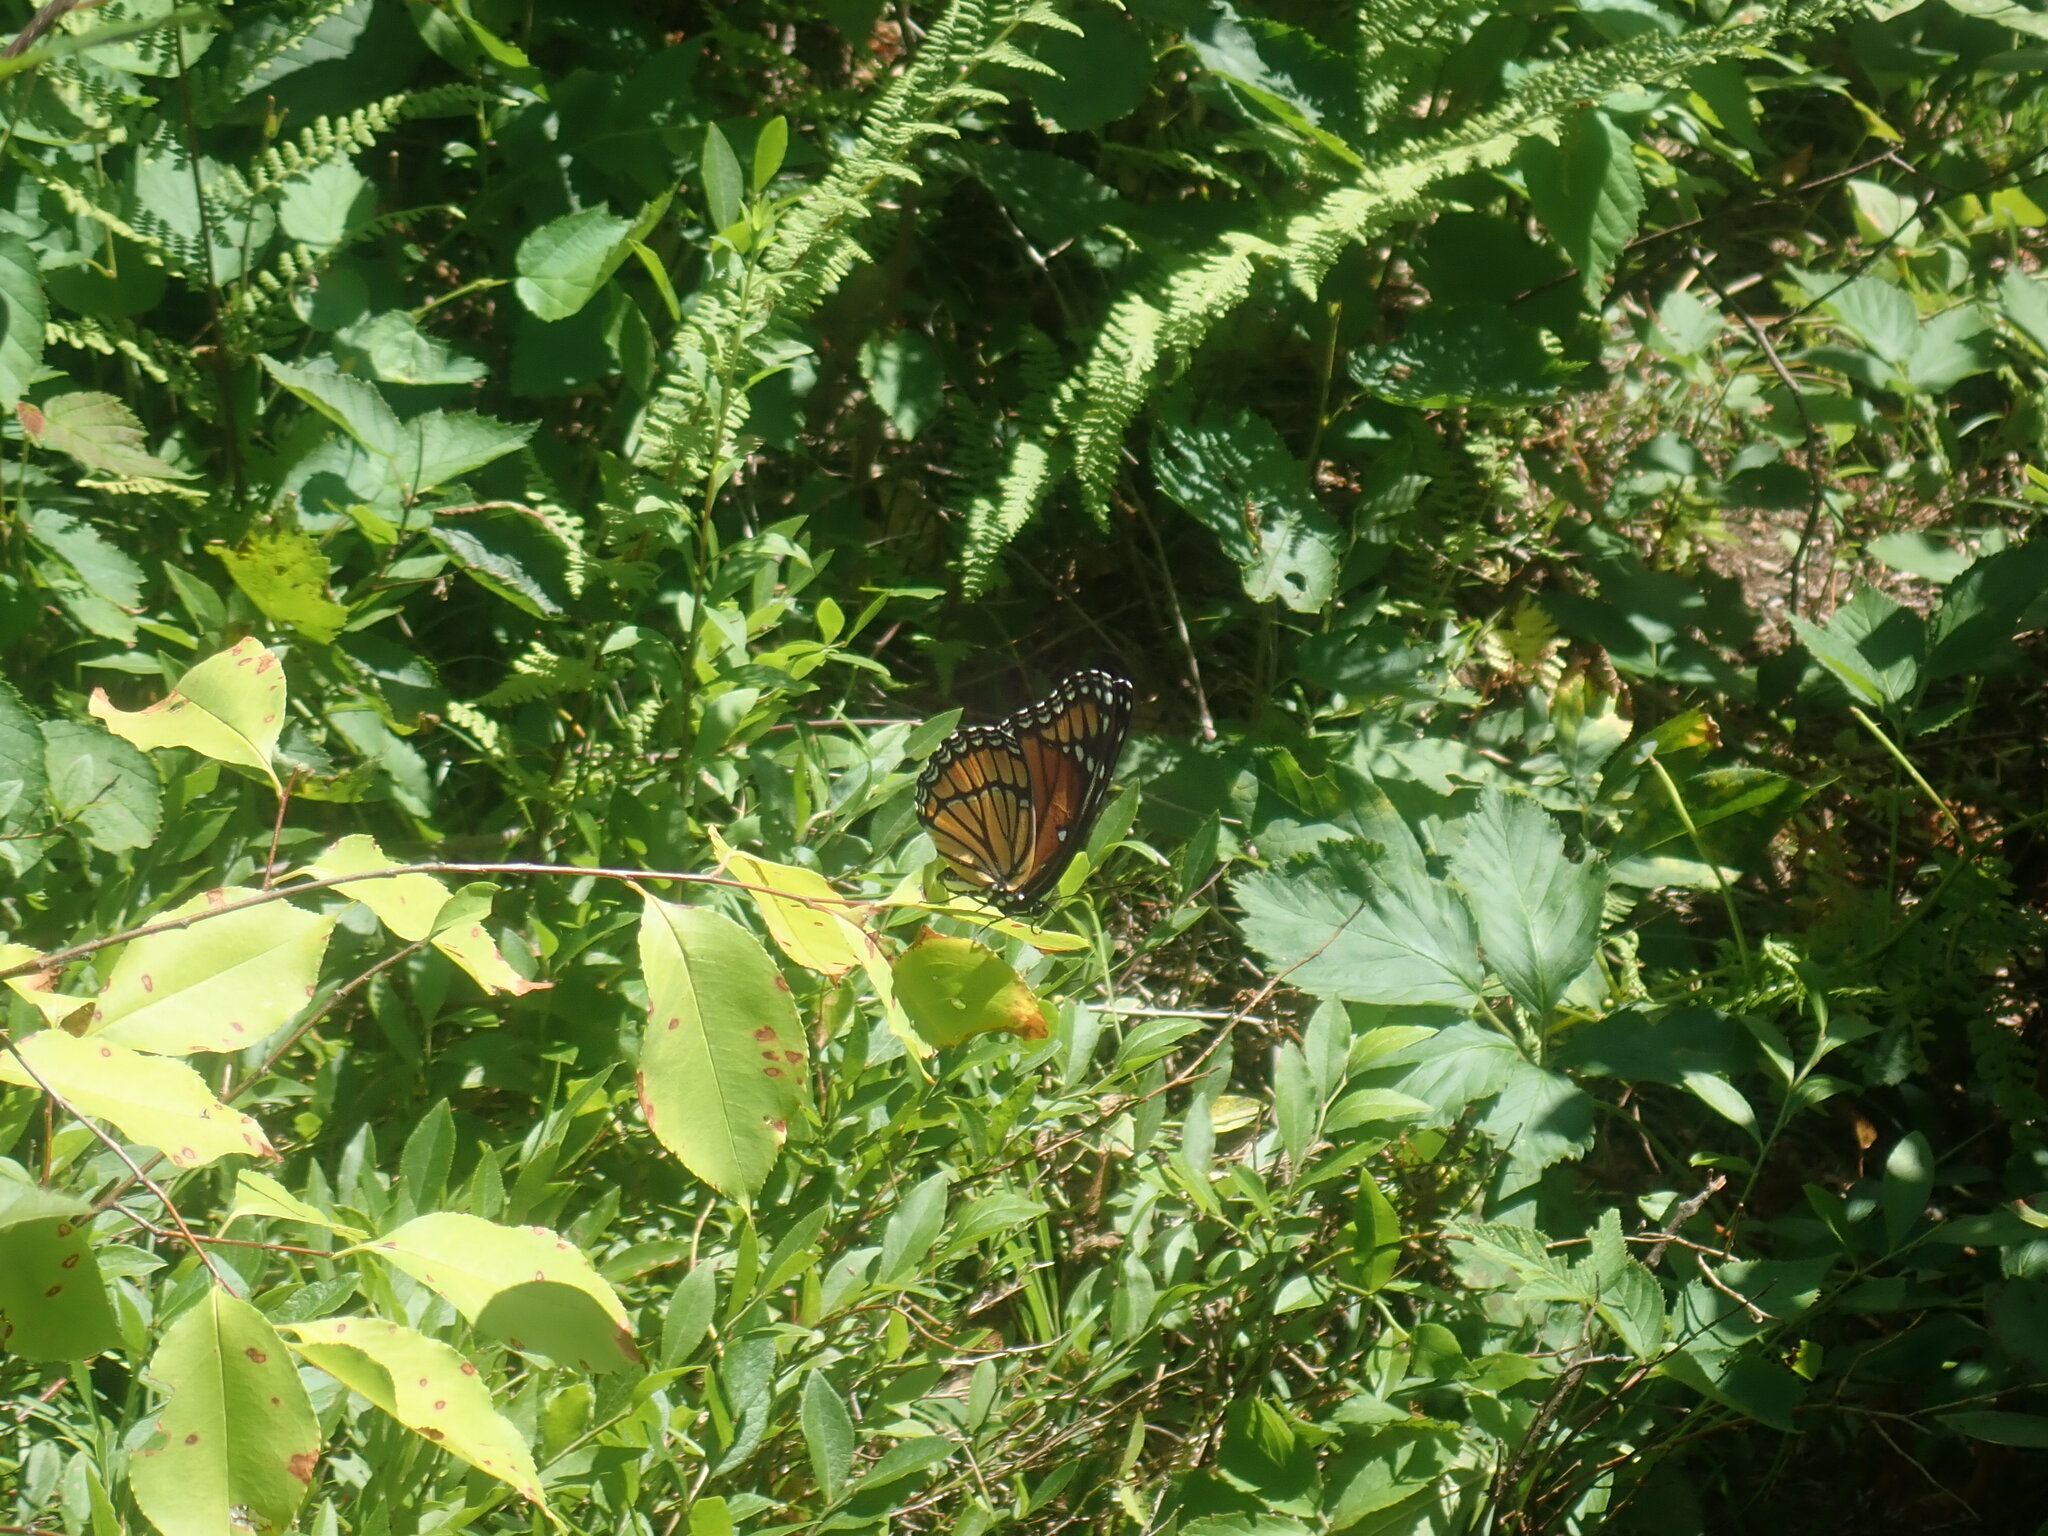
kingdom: Animalia
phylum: Arthropoda
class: Insecta
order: Lepidoptera
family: Nymphalidae
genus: Limenitis
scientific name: Limenitis archippus
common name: Viceroy
